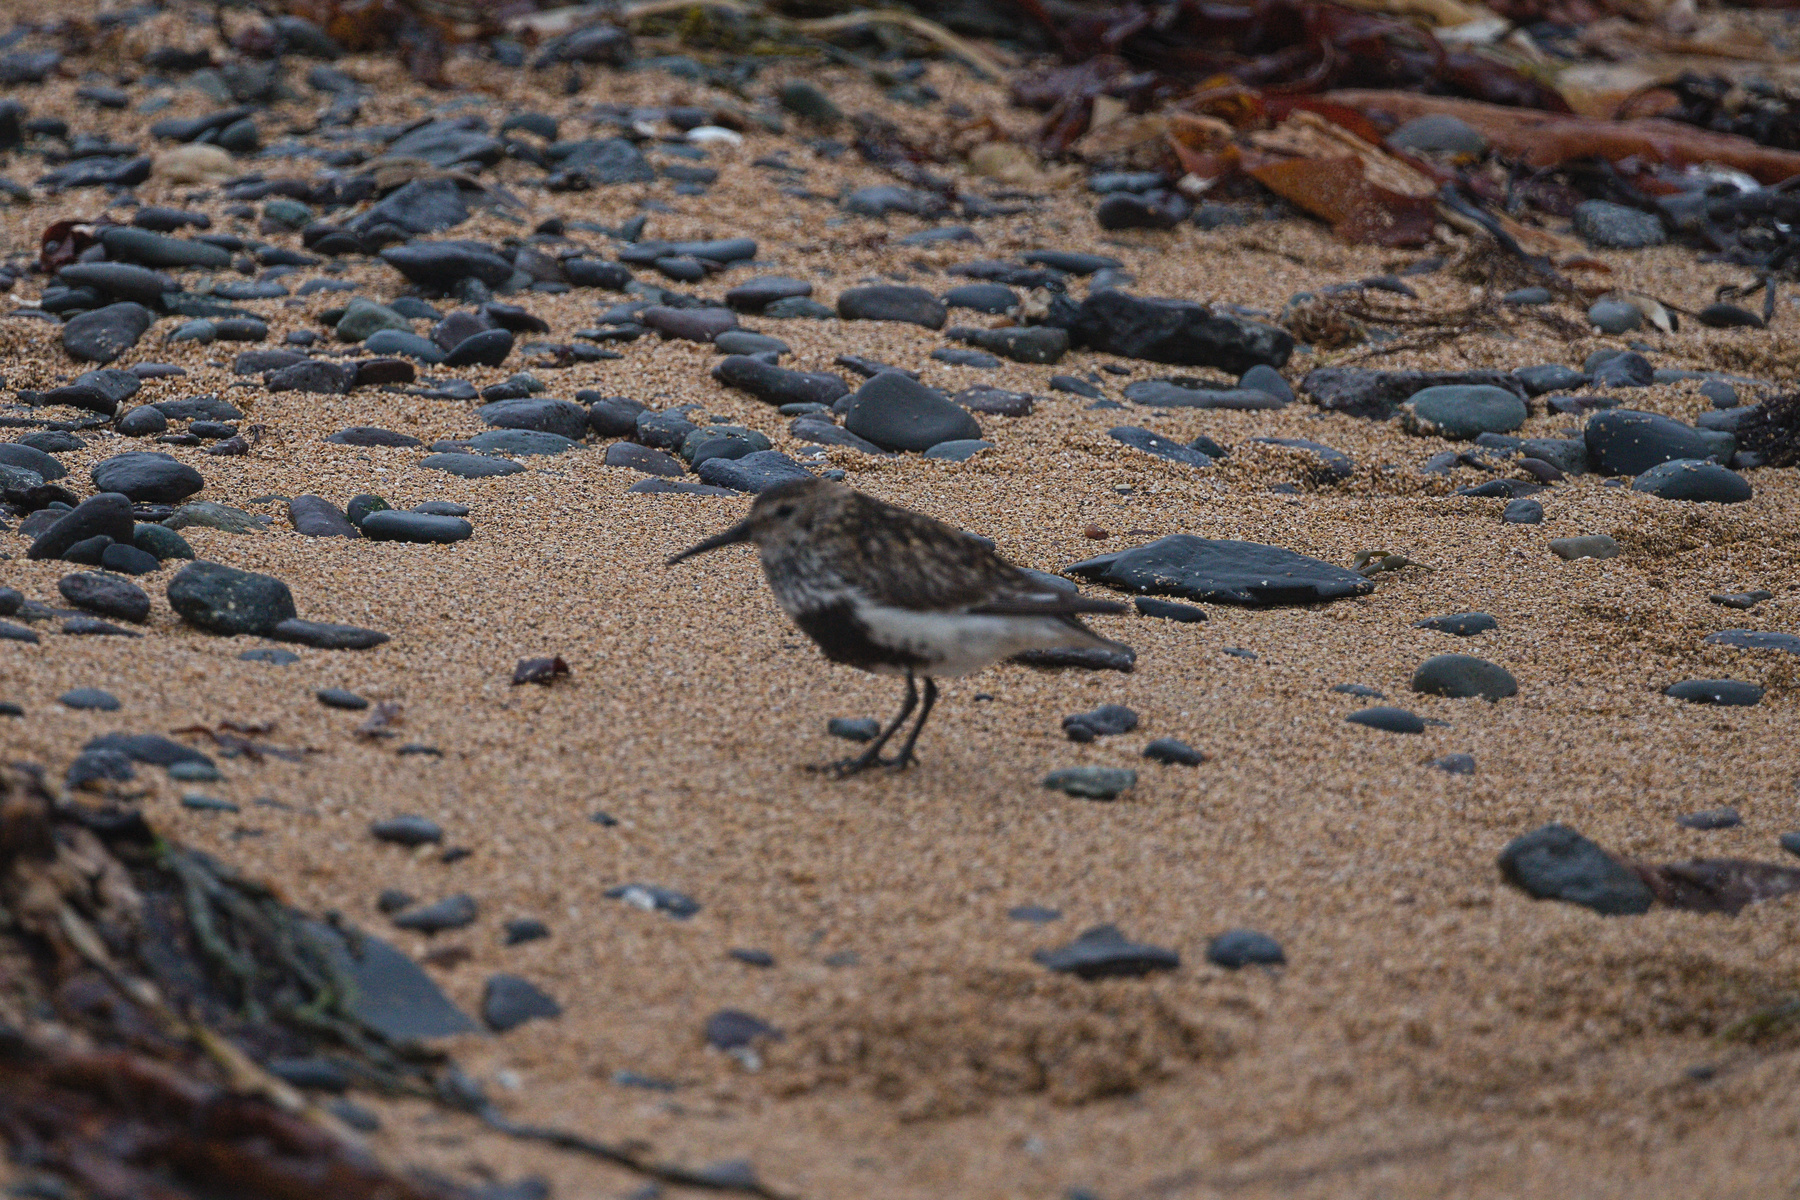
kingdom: Animalia
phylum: Chordata
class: Aves
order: Charadriiformes
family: Scolopacidae
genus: Calidris
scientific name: Calidris alpina
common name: Dunlin
